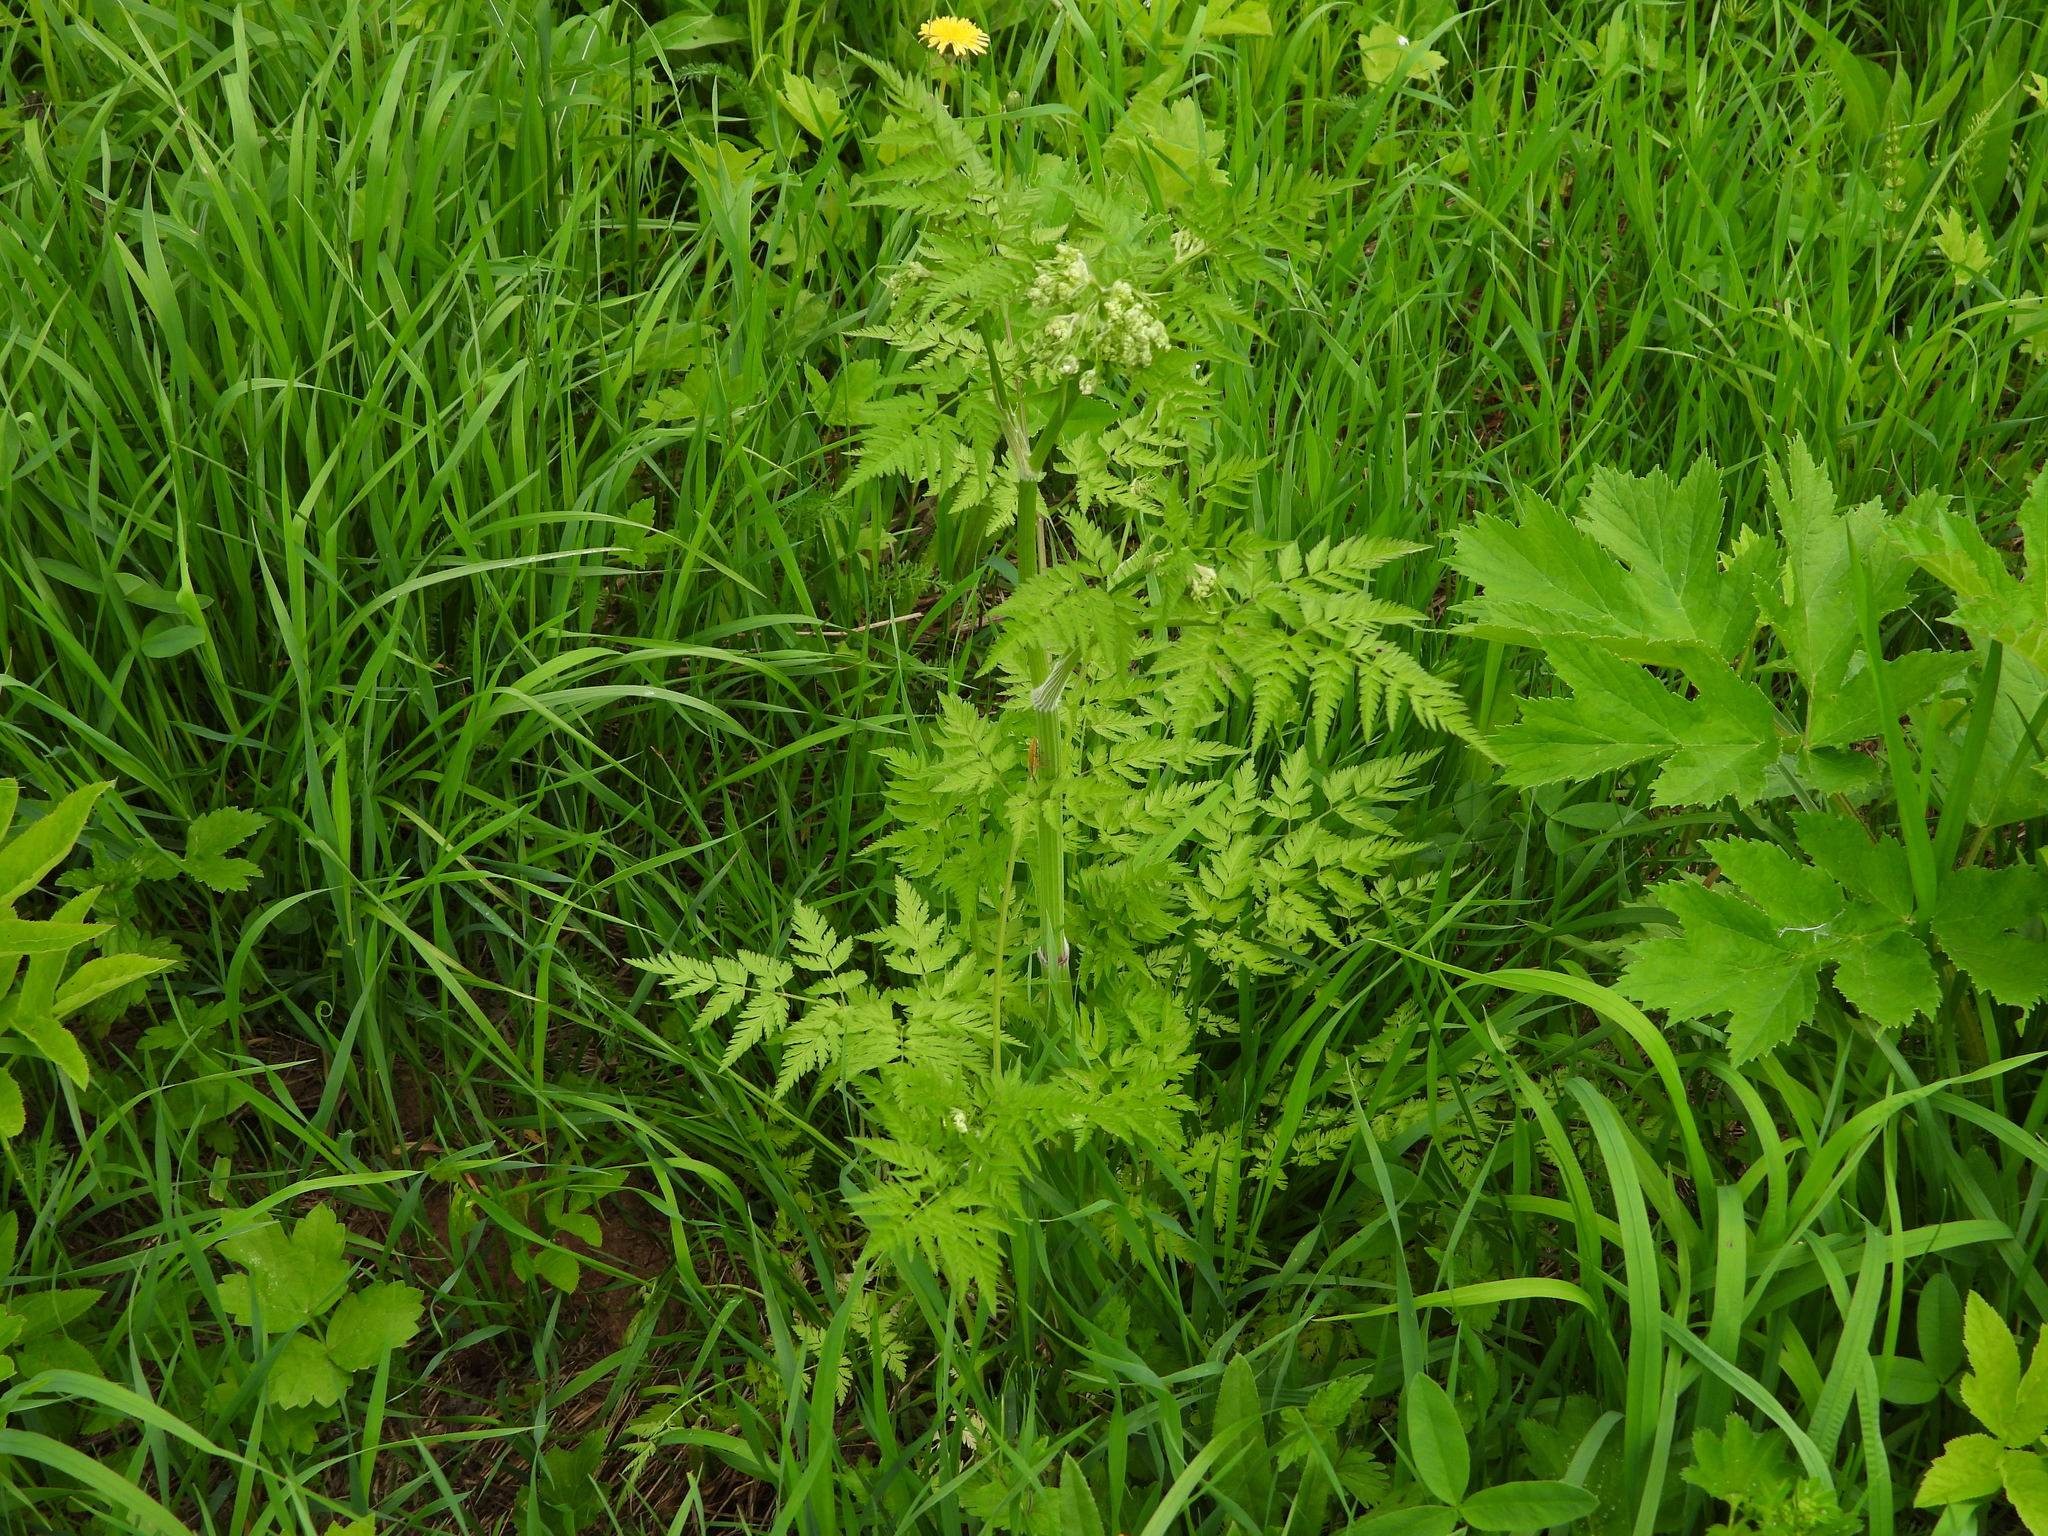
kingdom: Plantae
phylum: Tracheophyta
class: Magnoliopsida
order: Apiales
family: Apiaceae
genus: Anthriscus
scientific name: Anthriscus sylvestris
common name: Cow parsley
